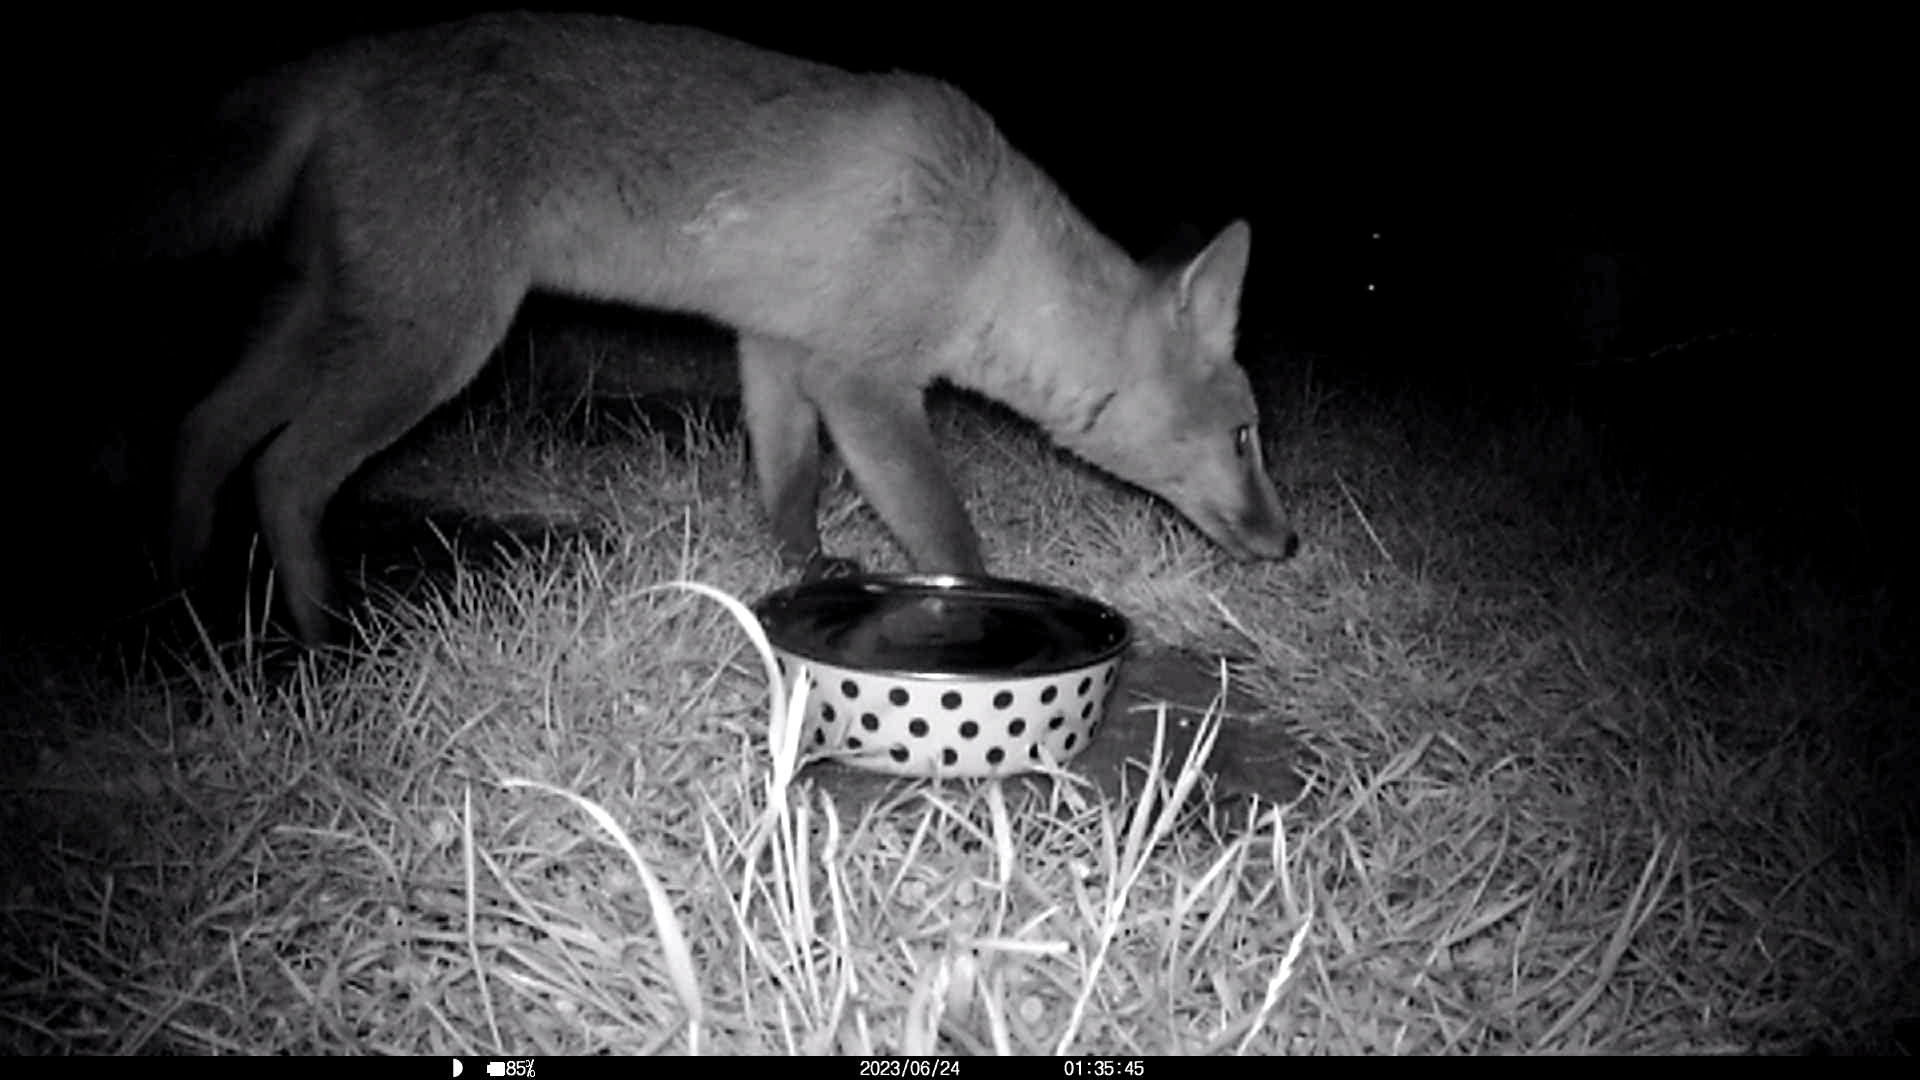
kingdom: Animalia
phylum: Chordata
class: Mammalia
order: Carnivora
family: Canidae
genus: Vulpes
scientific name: Vulpes vulpes
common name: Red fox
